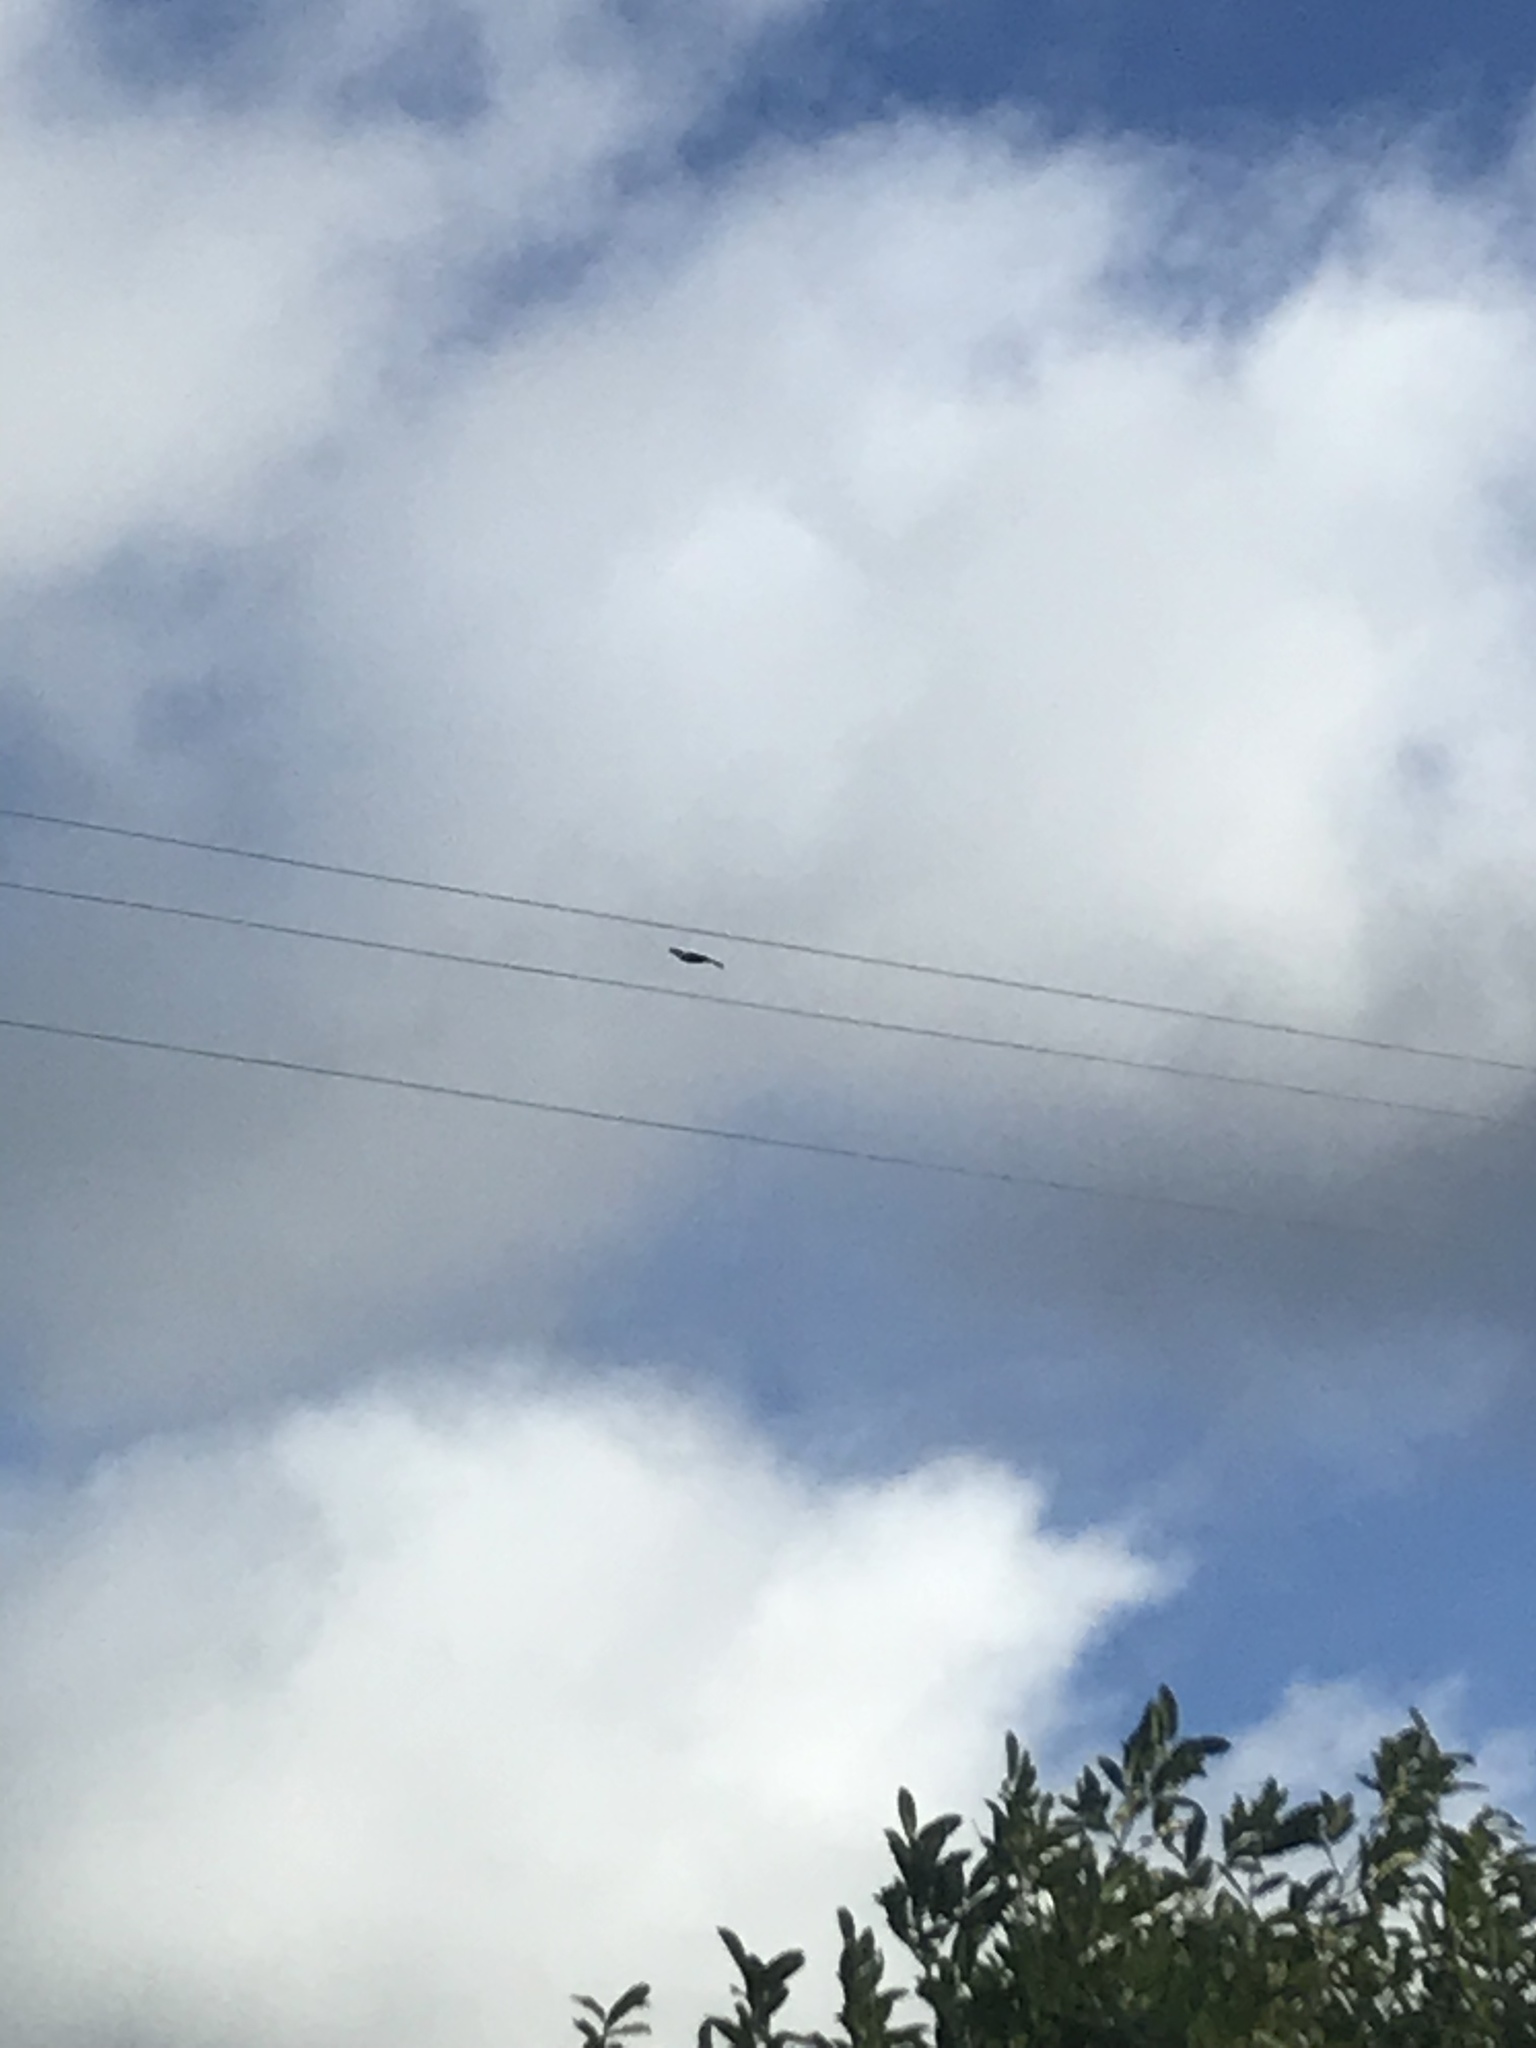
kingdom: Animalia
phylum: Chordata
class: Aves
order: Accipitriformes
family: Accipitridae
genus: Milvus
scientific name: Milvus milvus
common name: Red kite
